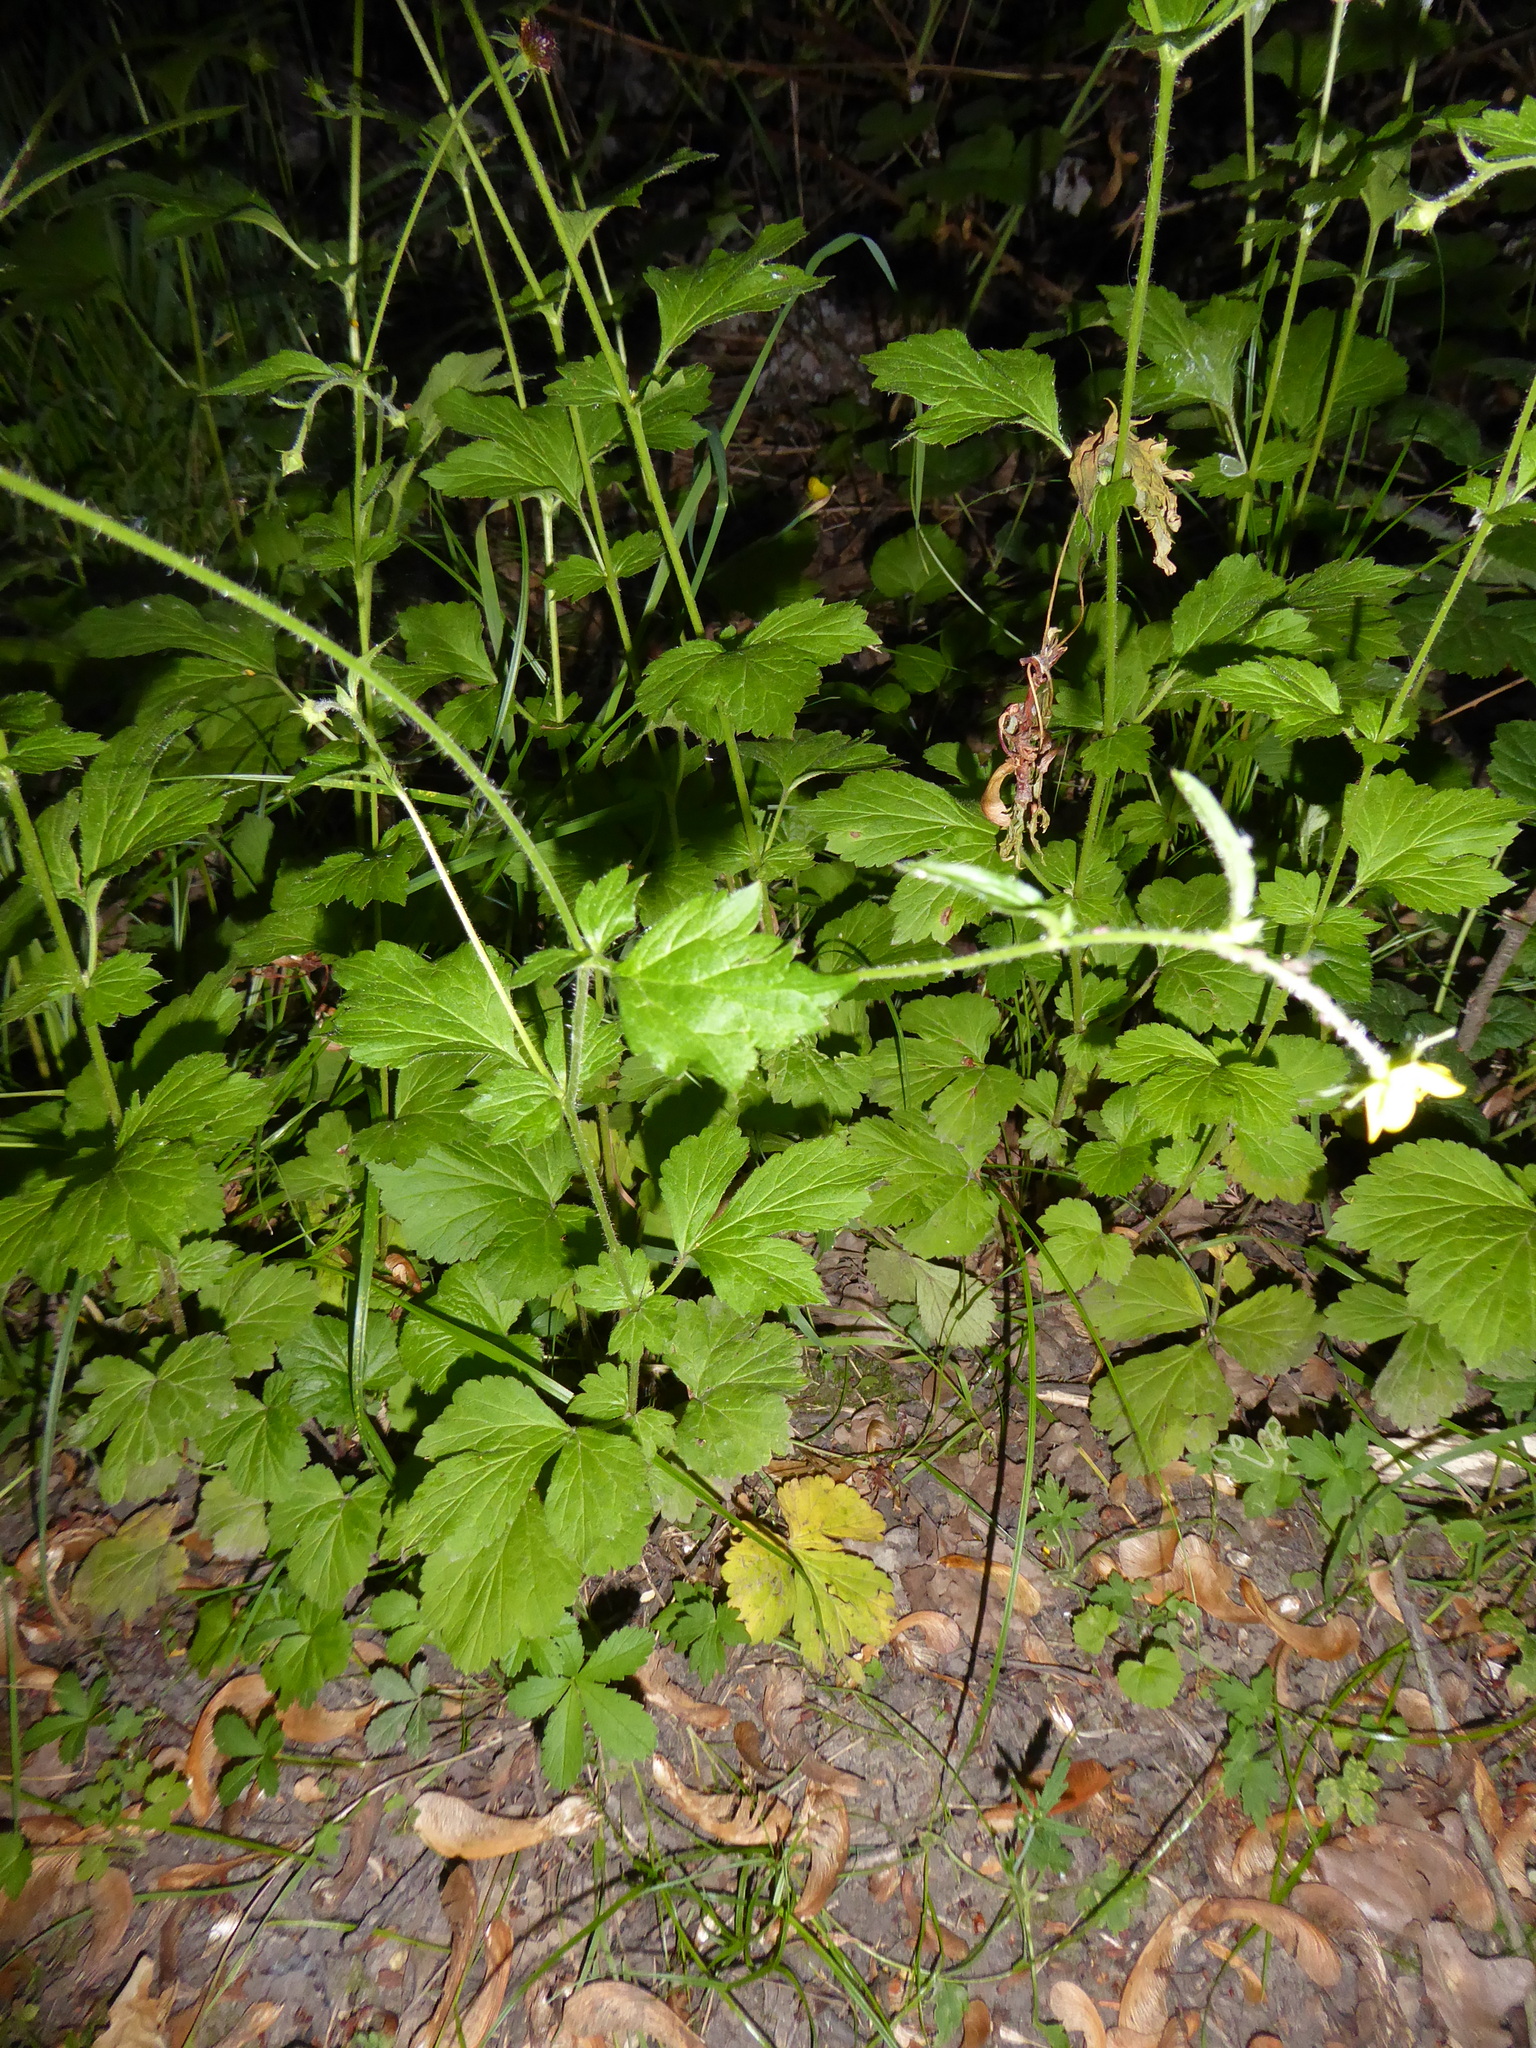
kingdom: Plantae
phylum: Tracheophyta
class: Magnoliopsida
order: Rosales
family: Rosaceae
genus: Geum
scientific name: Geum urbanum
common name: Wood avens
